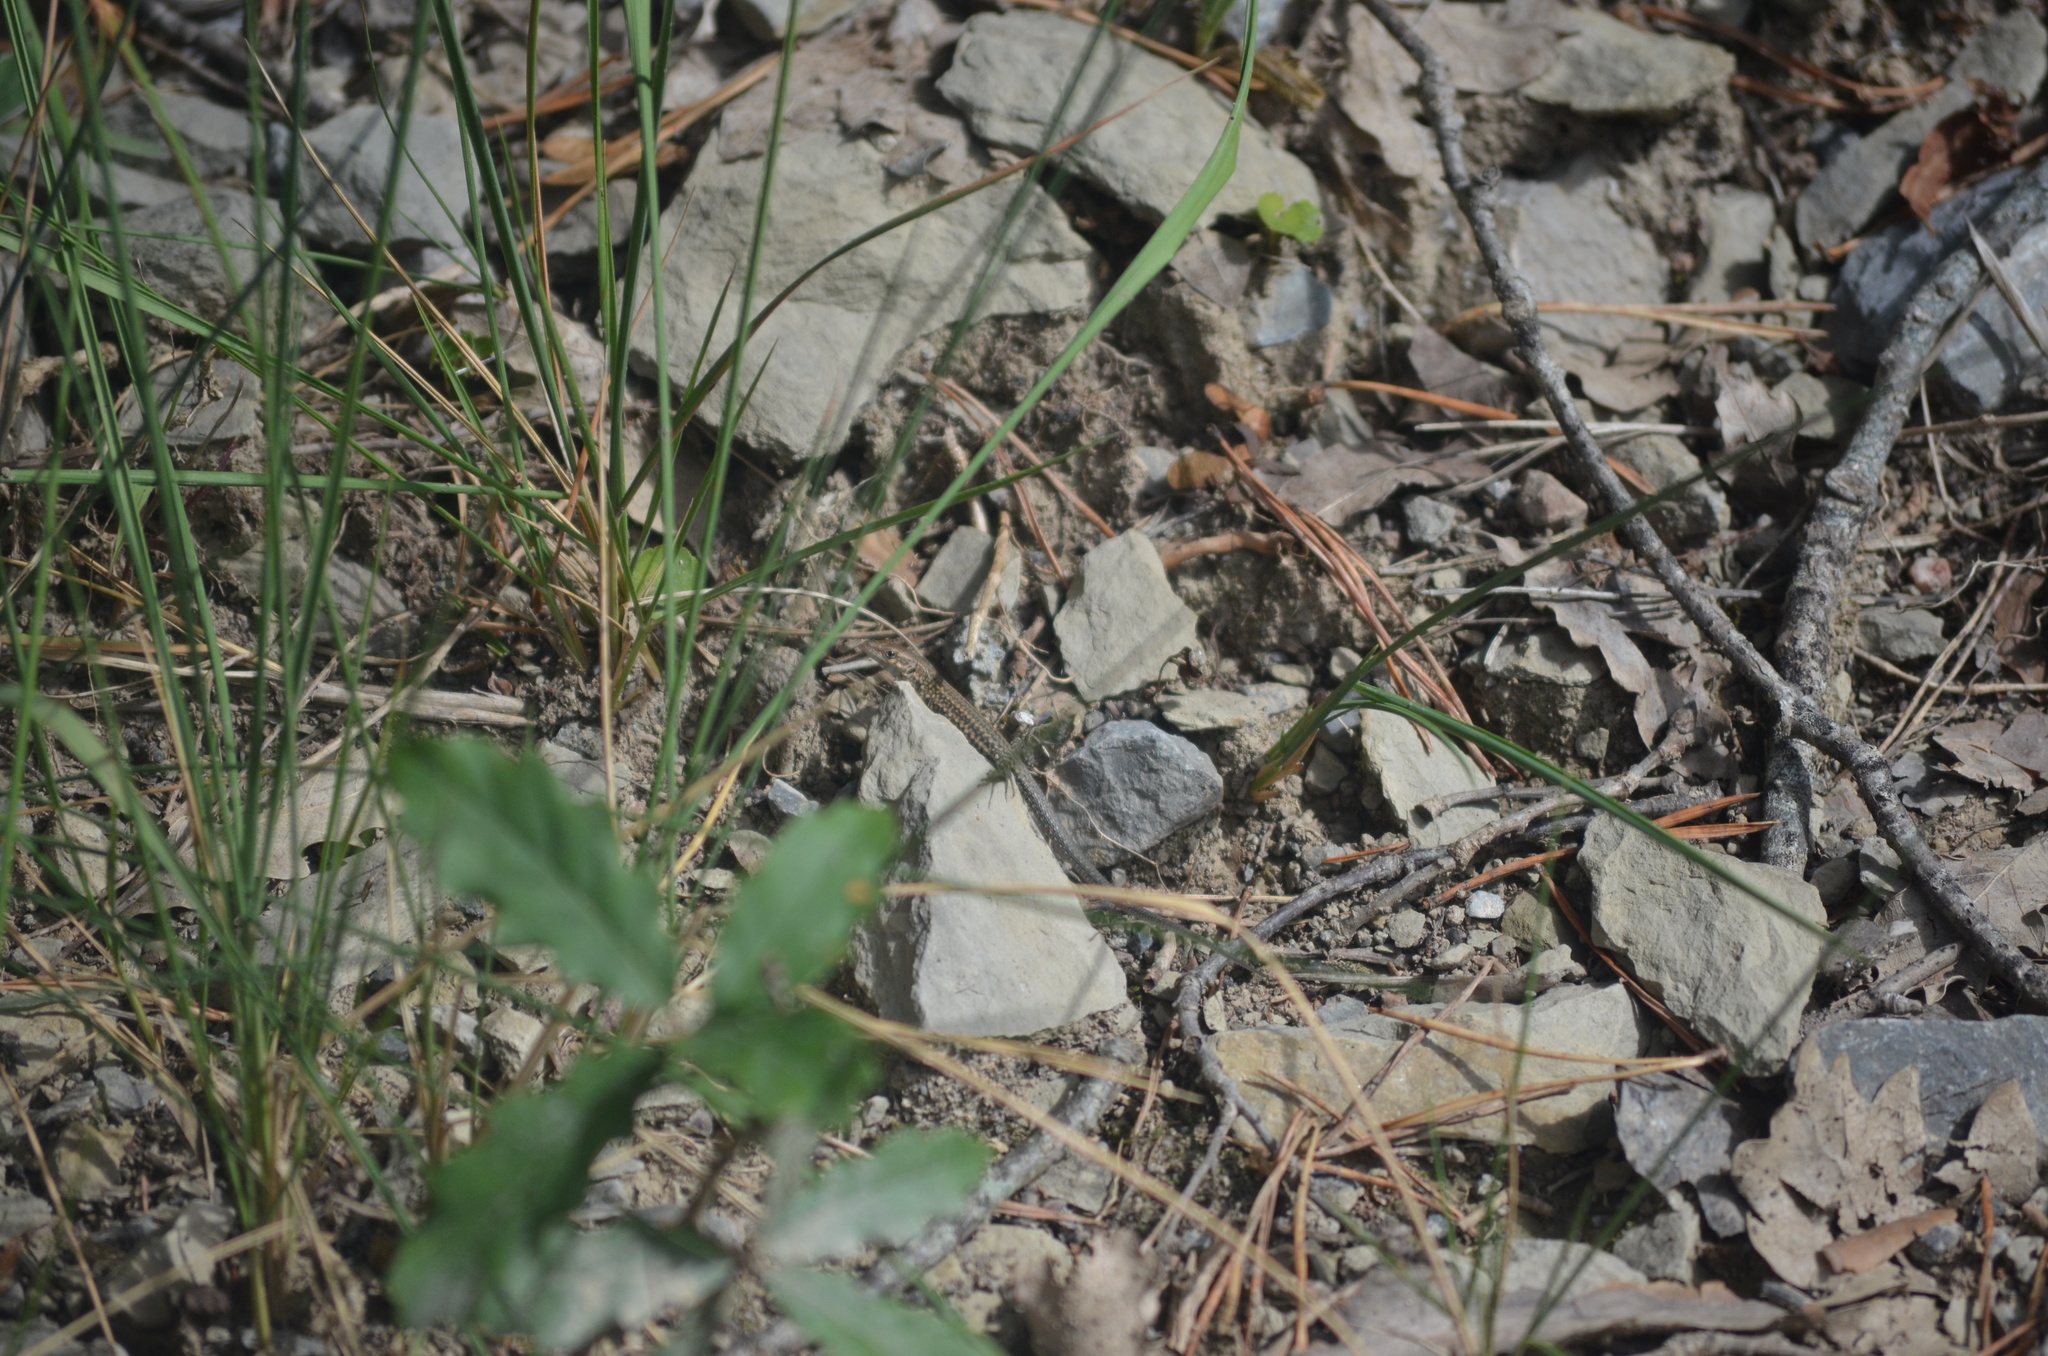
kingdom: Animalia
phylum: Chordata
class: Squamata
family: Lacertidae
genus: Podarcis
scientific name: Podarcis muralis
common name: Common wall lizard
